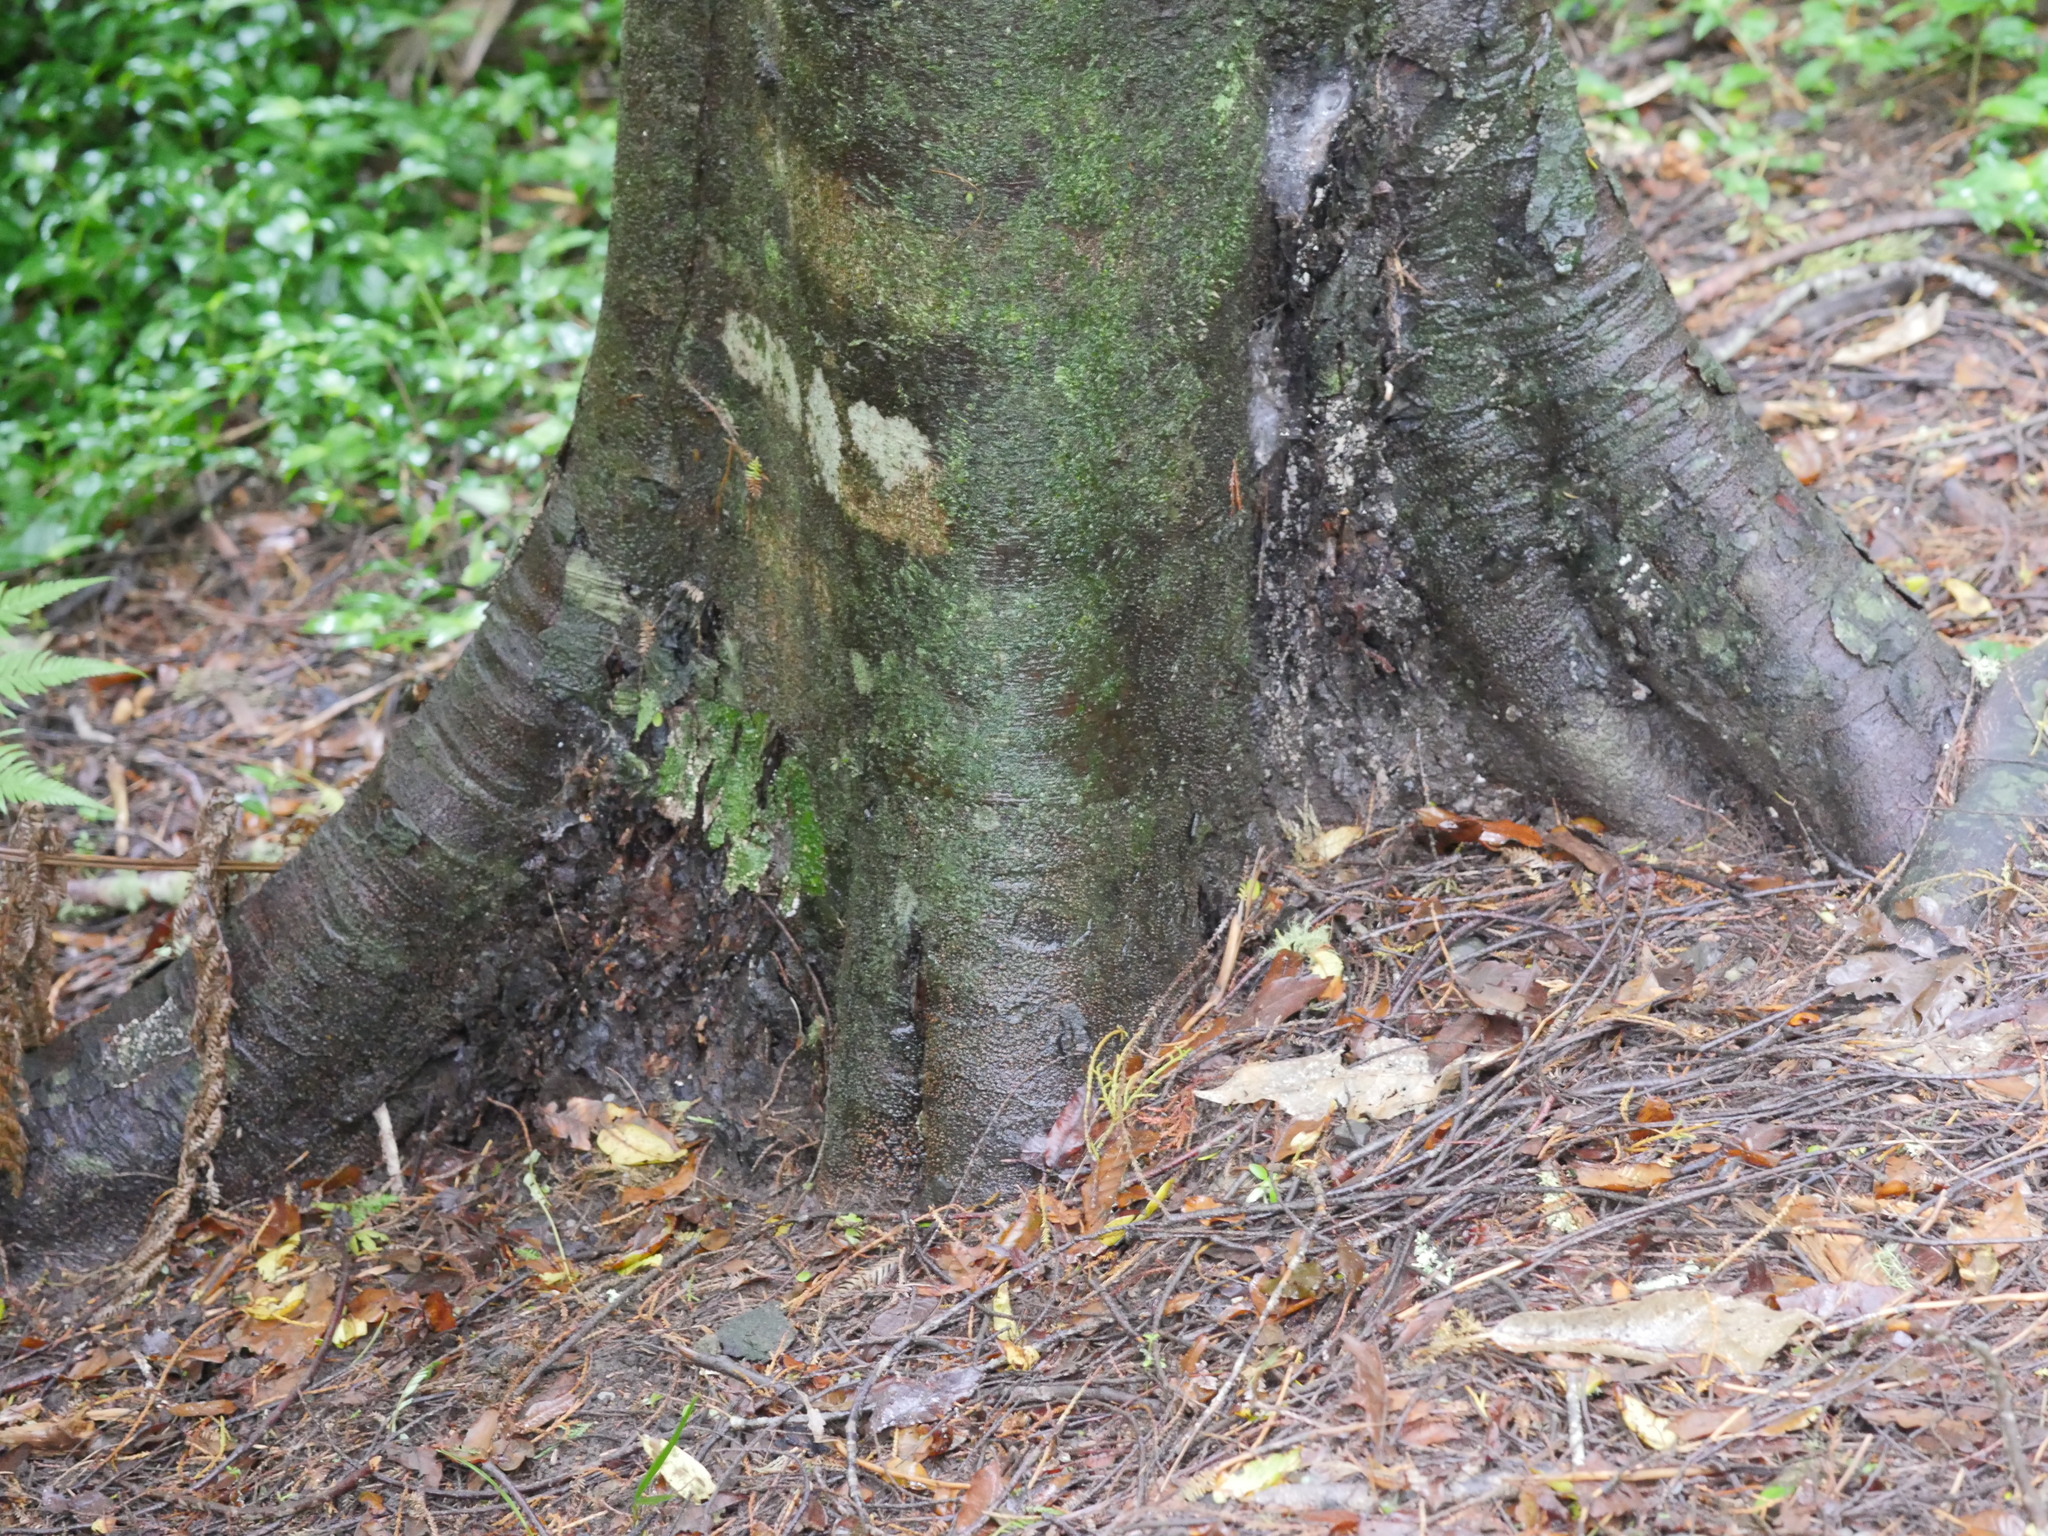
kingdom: Plantae
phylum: Tracheophyta
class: Pinopsida
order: Pinales
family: Podocarpaceae
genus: Dacrycarpus
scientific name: Dacrycarpus dacrydioides
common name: White pine
